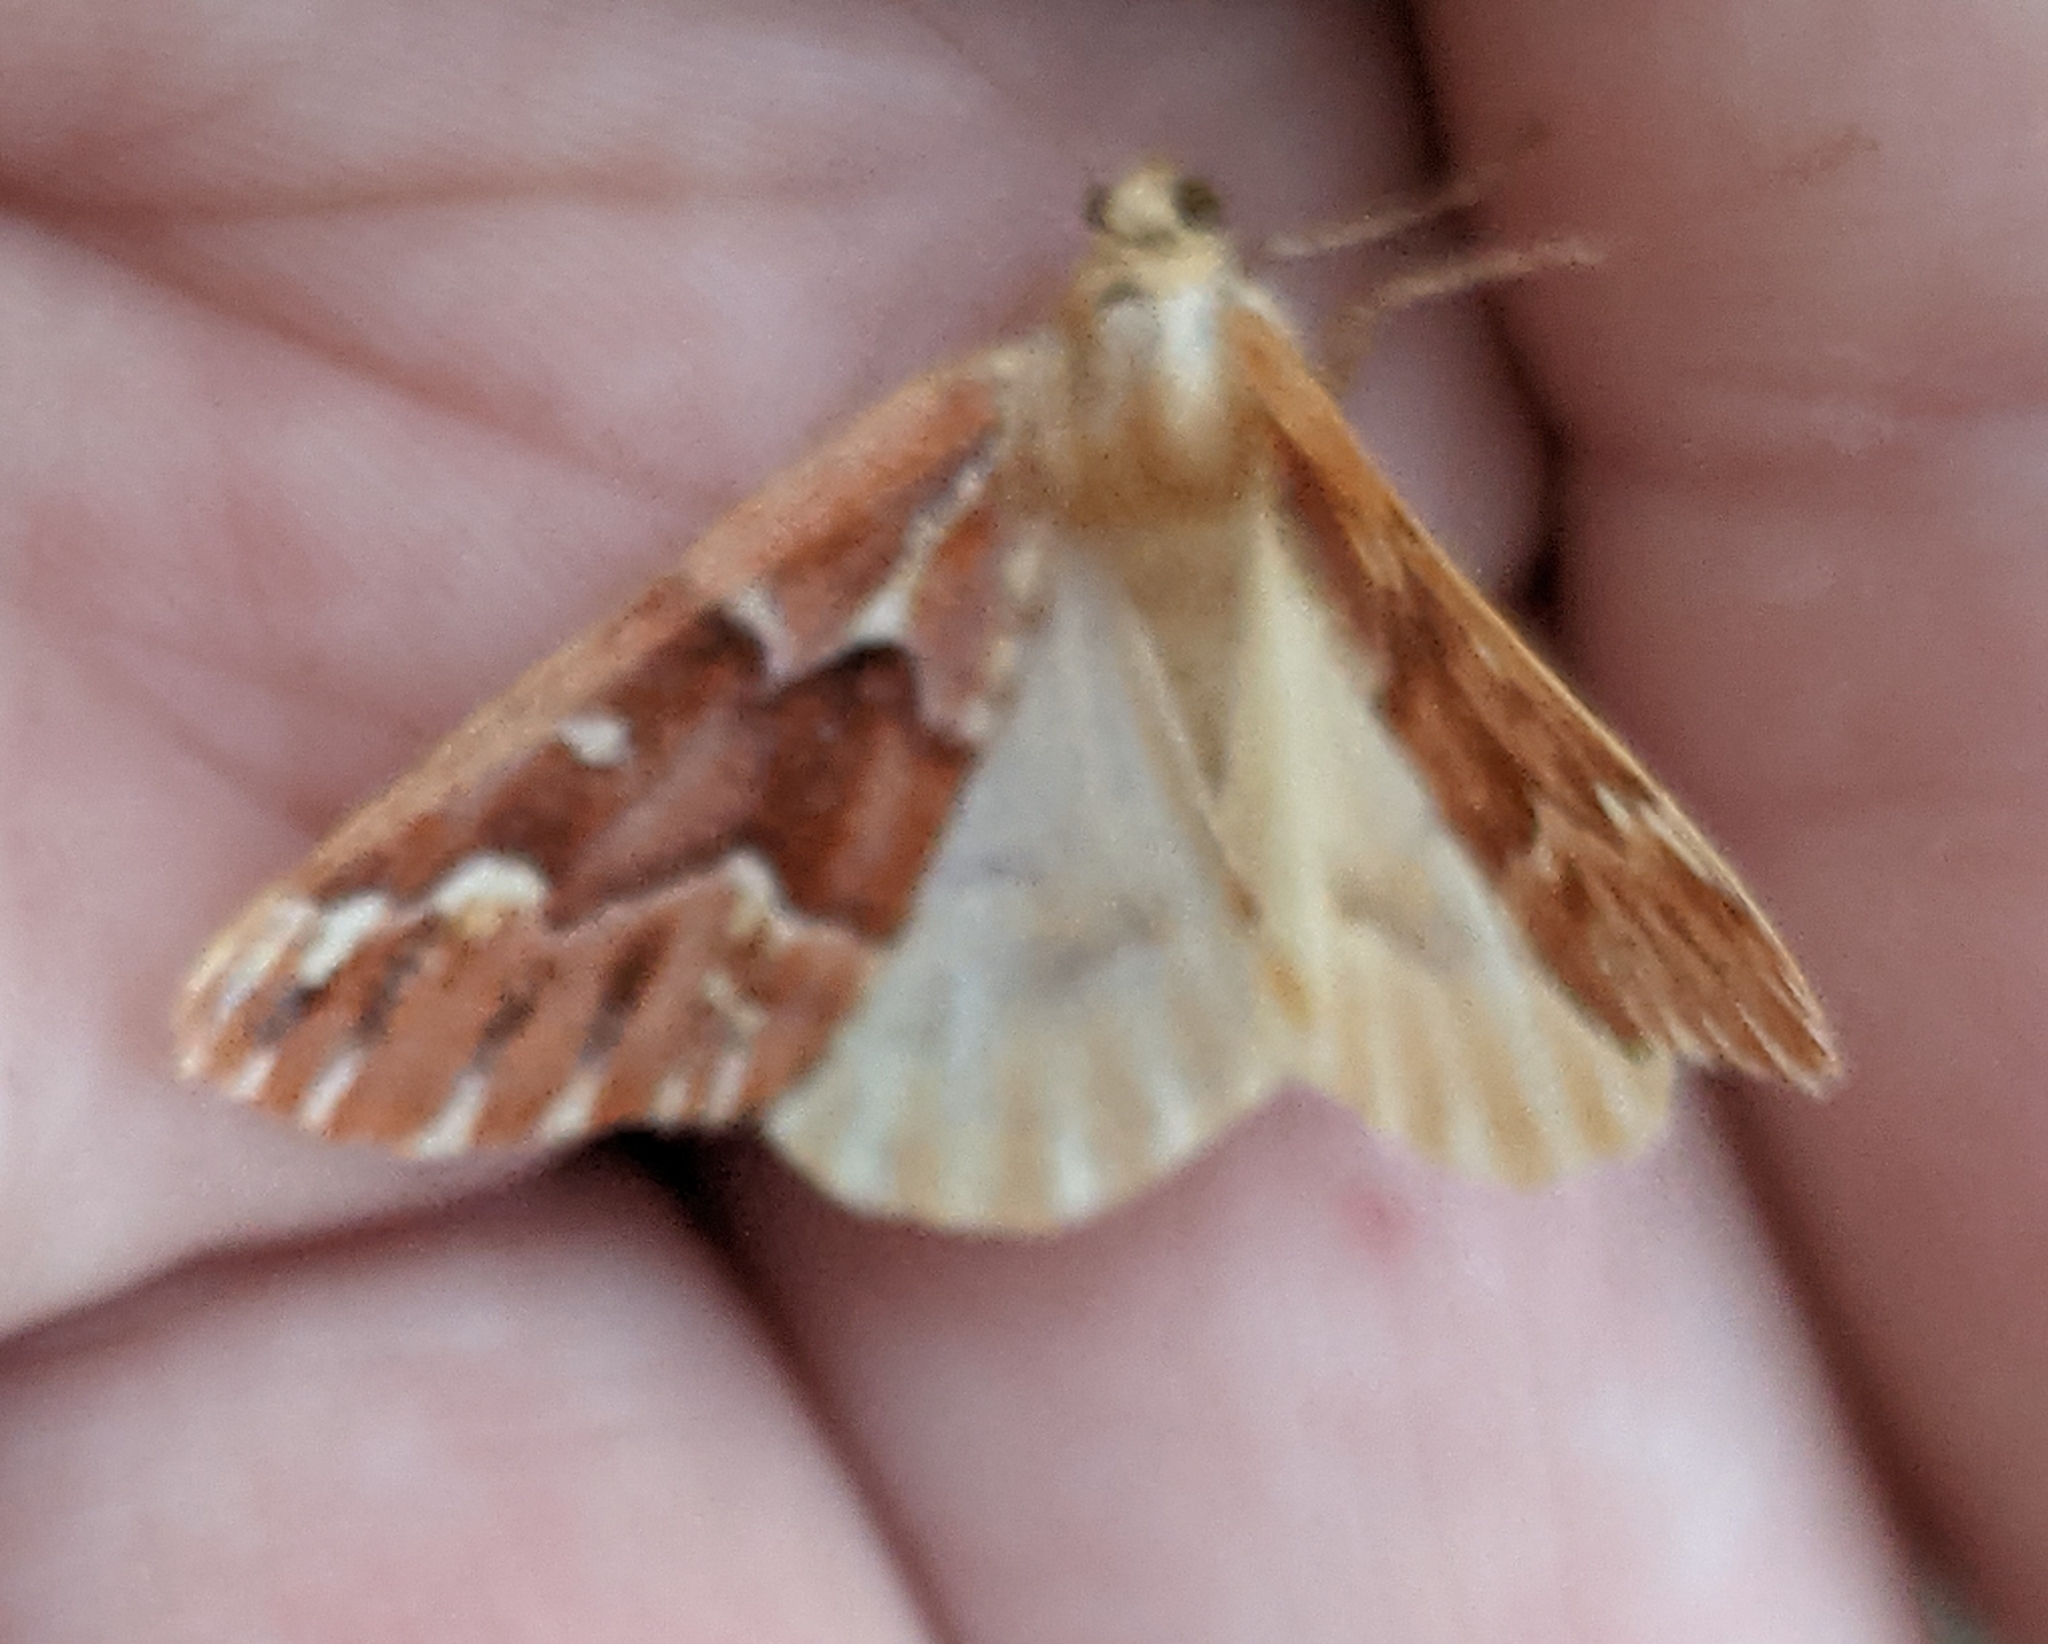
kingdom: Animalia
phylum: Arthropoda
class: Insecta
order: Lepidoptera
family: Geometridae
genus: Caripeta
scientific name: Caripeta aequaliaria
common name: Red girdle moth
